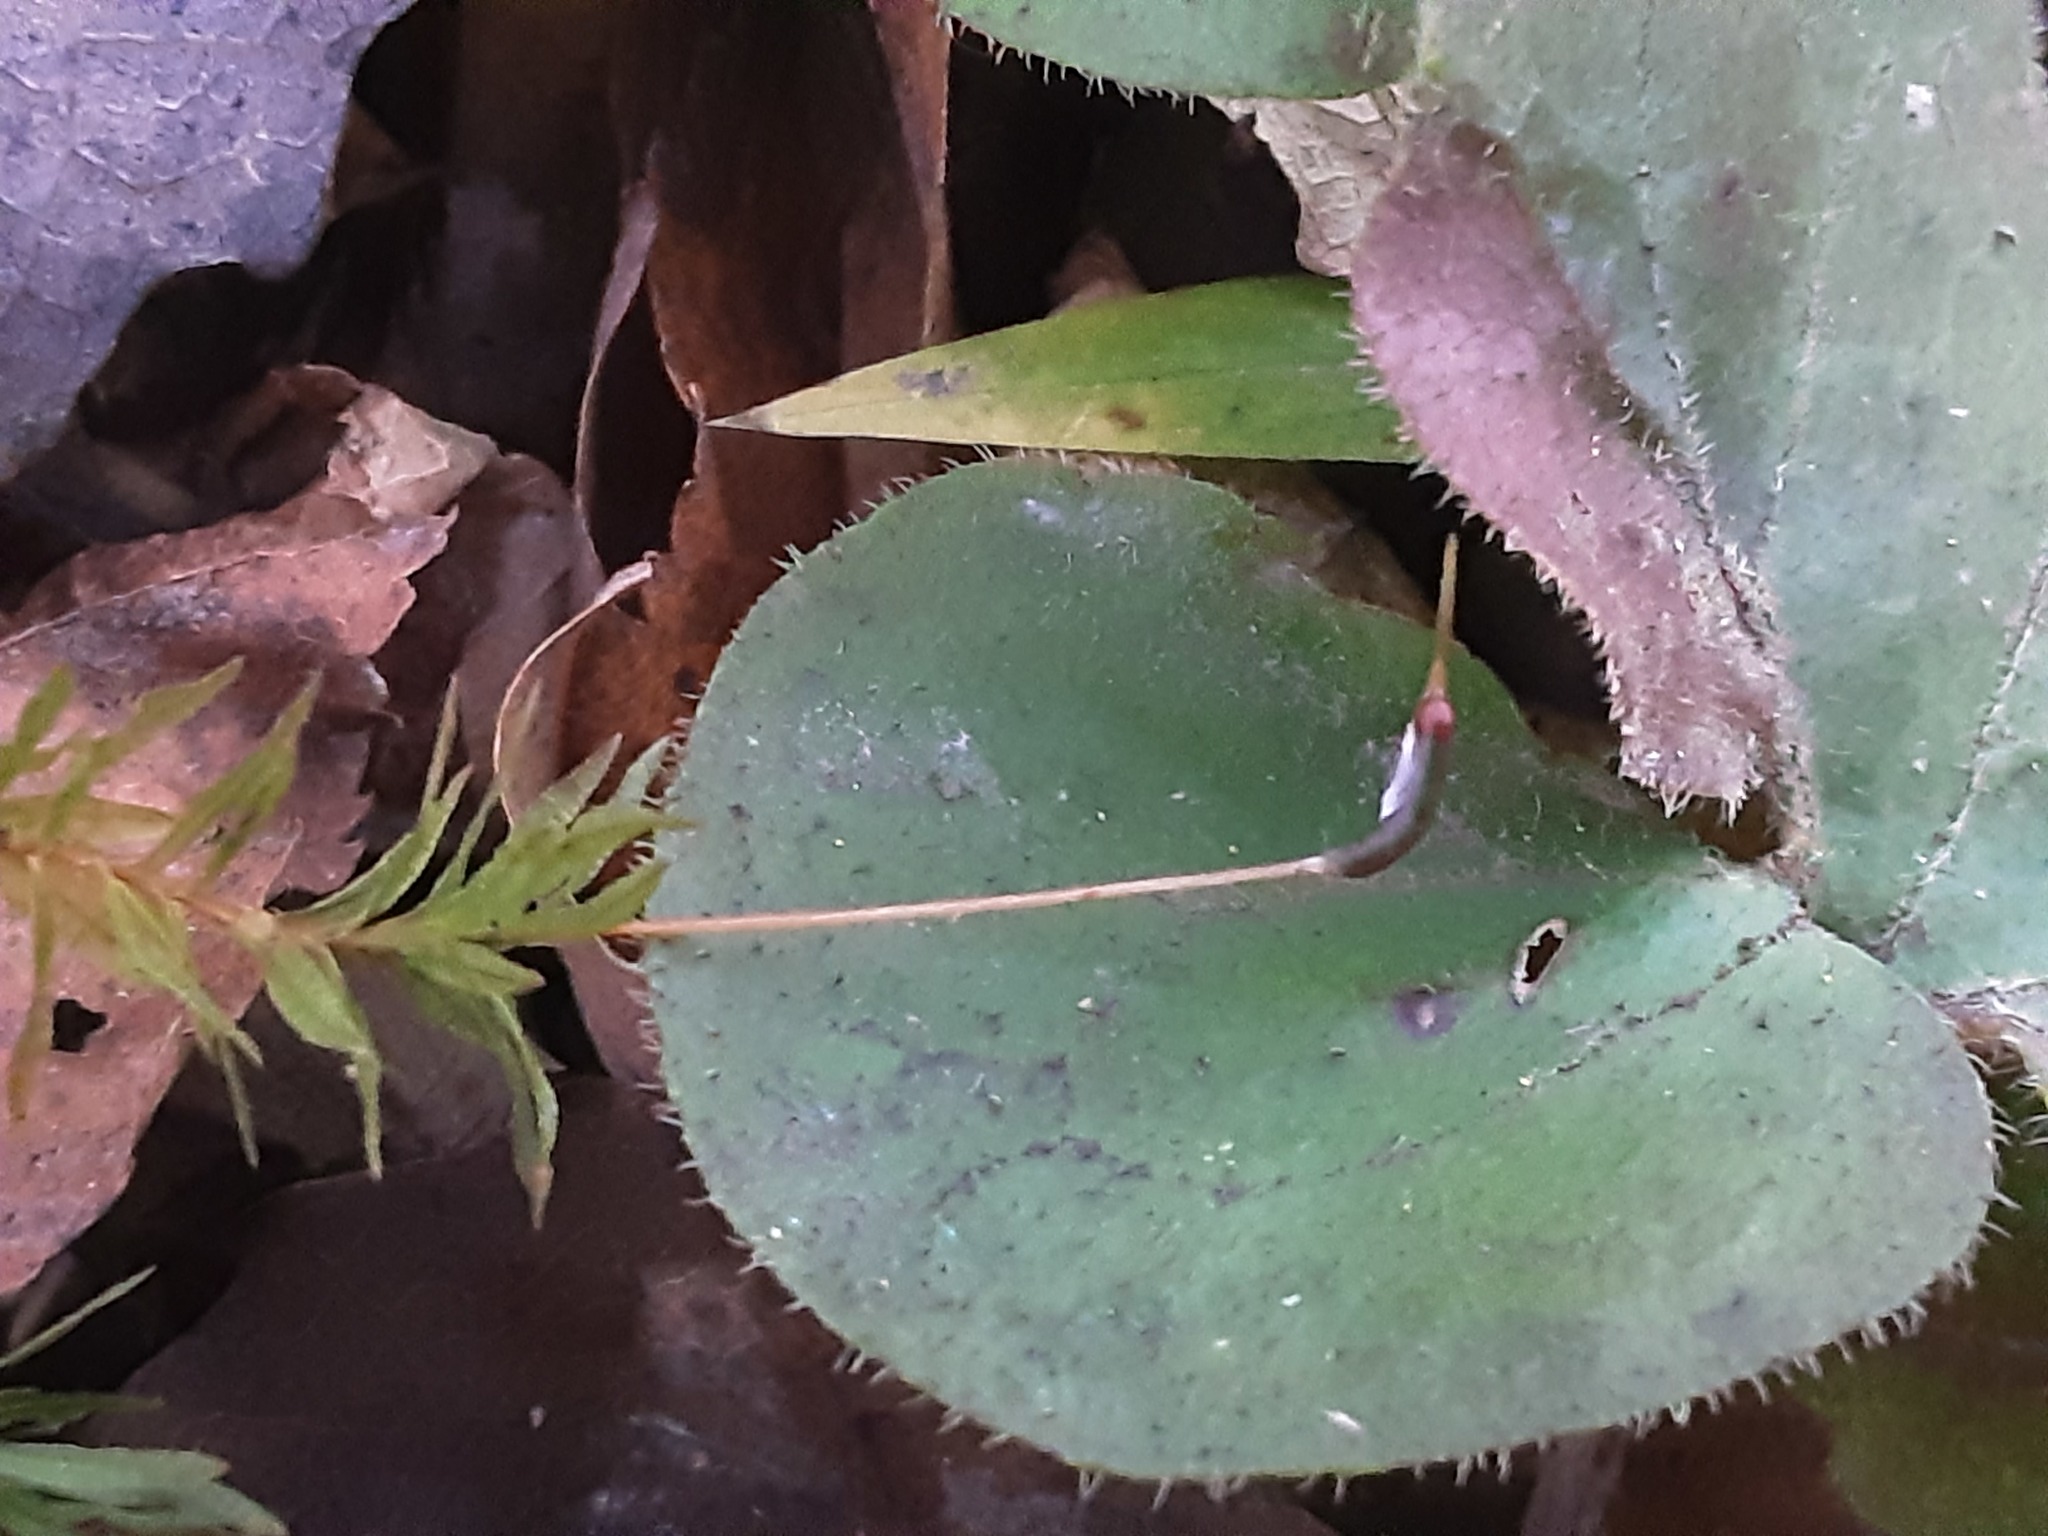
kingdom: Plantae
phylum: Bryophyta
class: Polytrichopsida
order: Polytrichales
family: Polytrichaceae
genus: Atrichum
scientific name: Atrichum undulatum
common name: Common smoothcap
